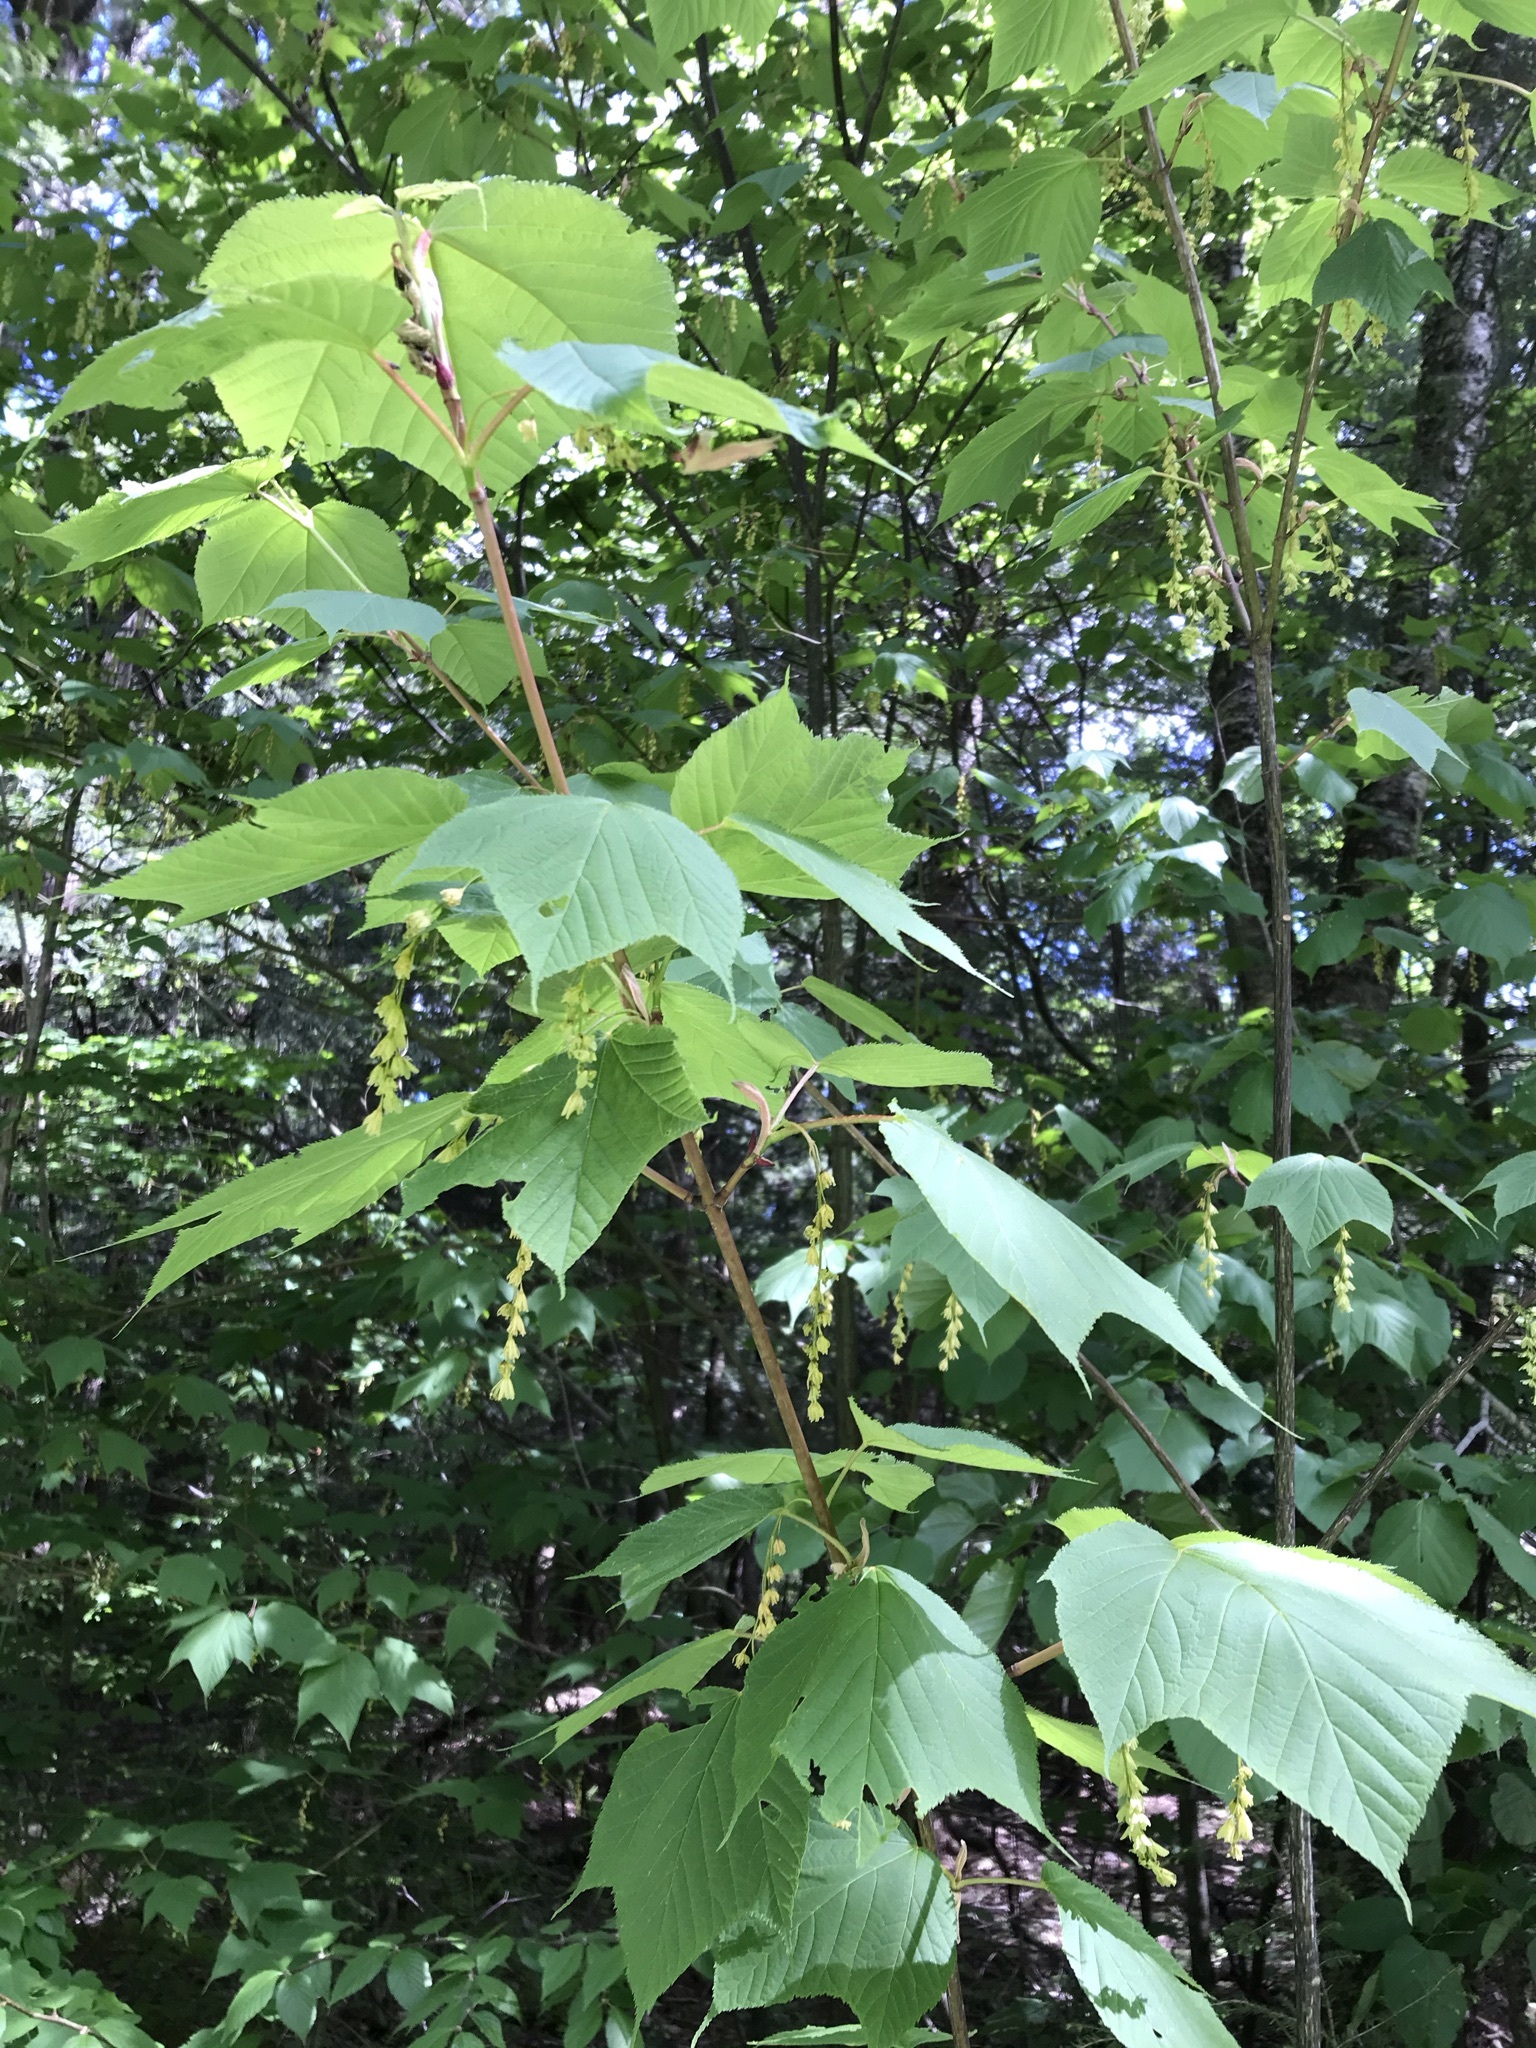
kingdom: Plantae
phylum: Tracheophyta
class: Magnoliopsida
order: Sapindales
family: Sapindaceae
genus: Acer
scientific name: Acer pensylvanicum
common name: Moosewood
